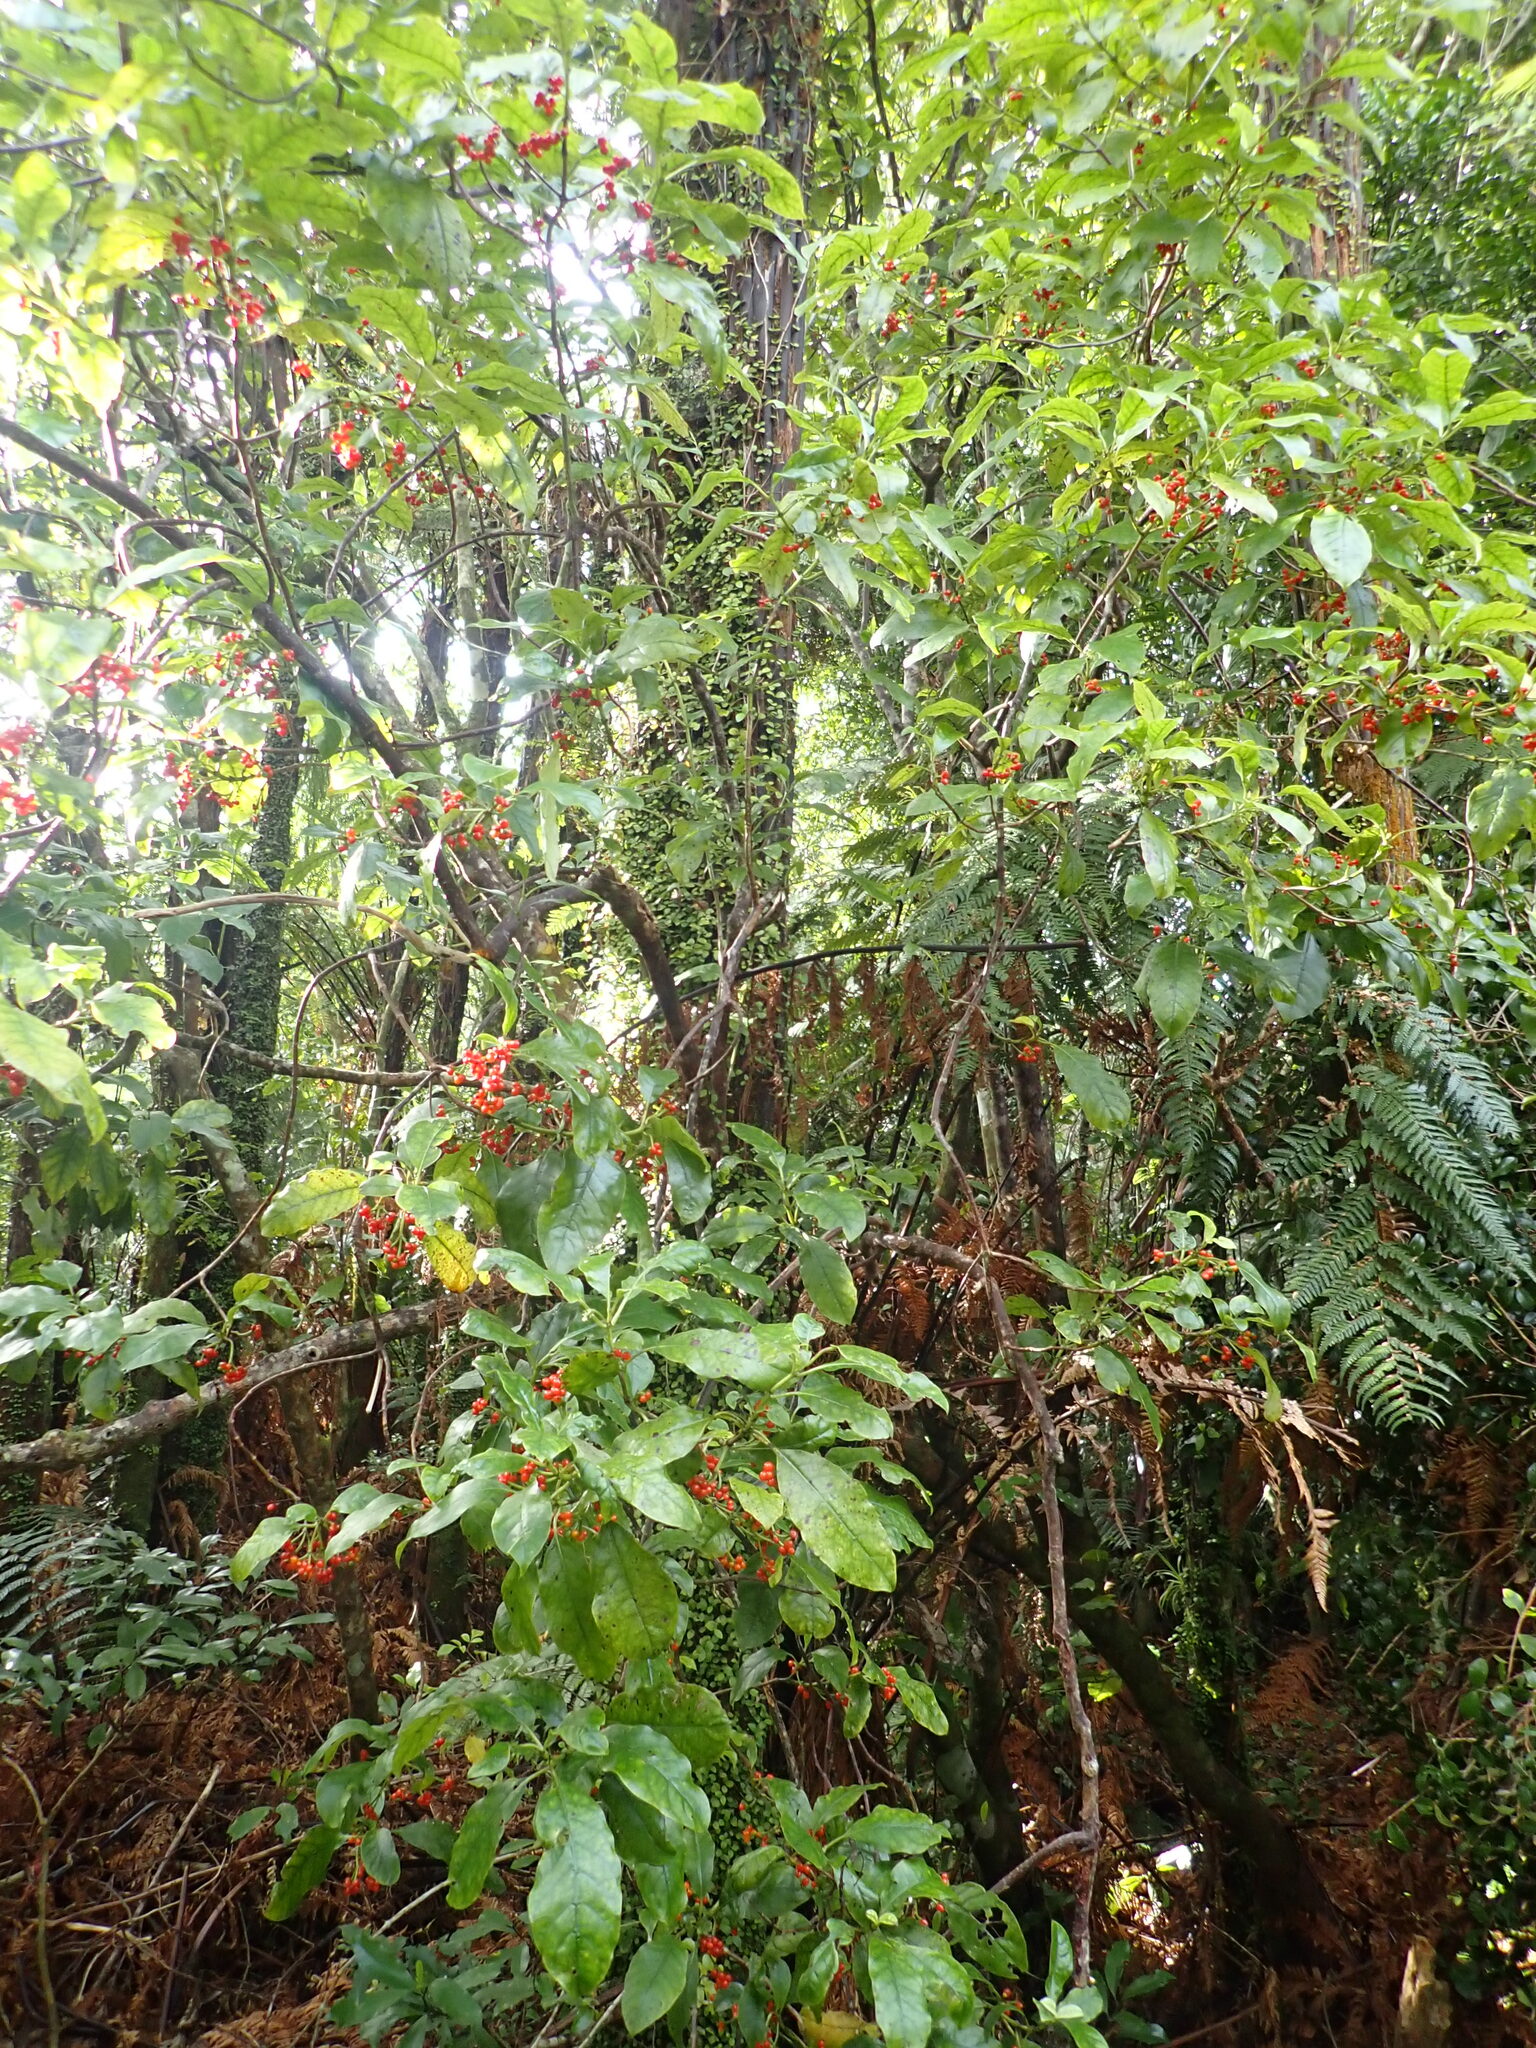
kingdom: Plantae
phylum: Tracheophyta
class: Magnoliopsida
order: Gentianales
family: Rubiaceae
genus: Coprosma
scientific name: Coprosma autumnalis
